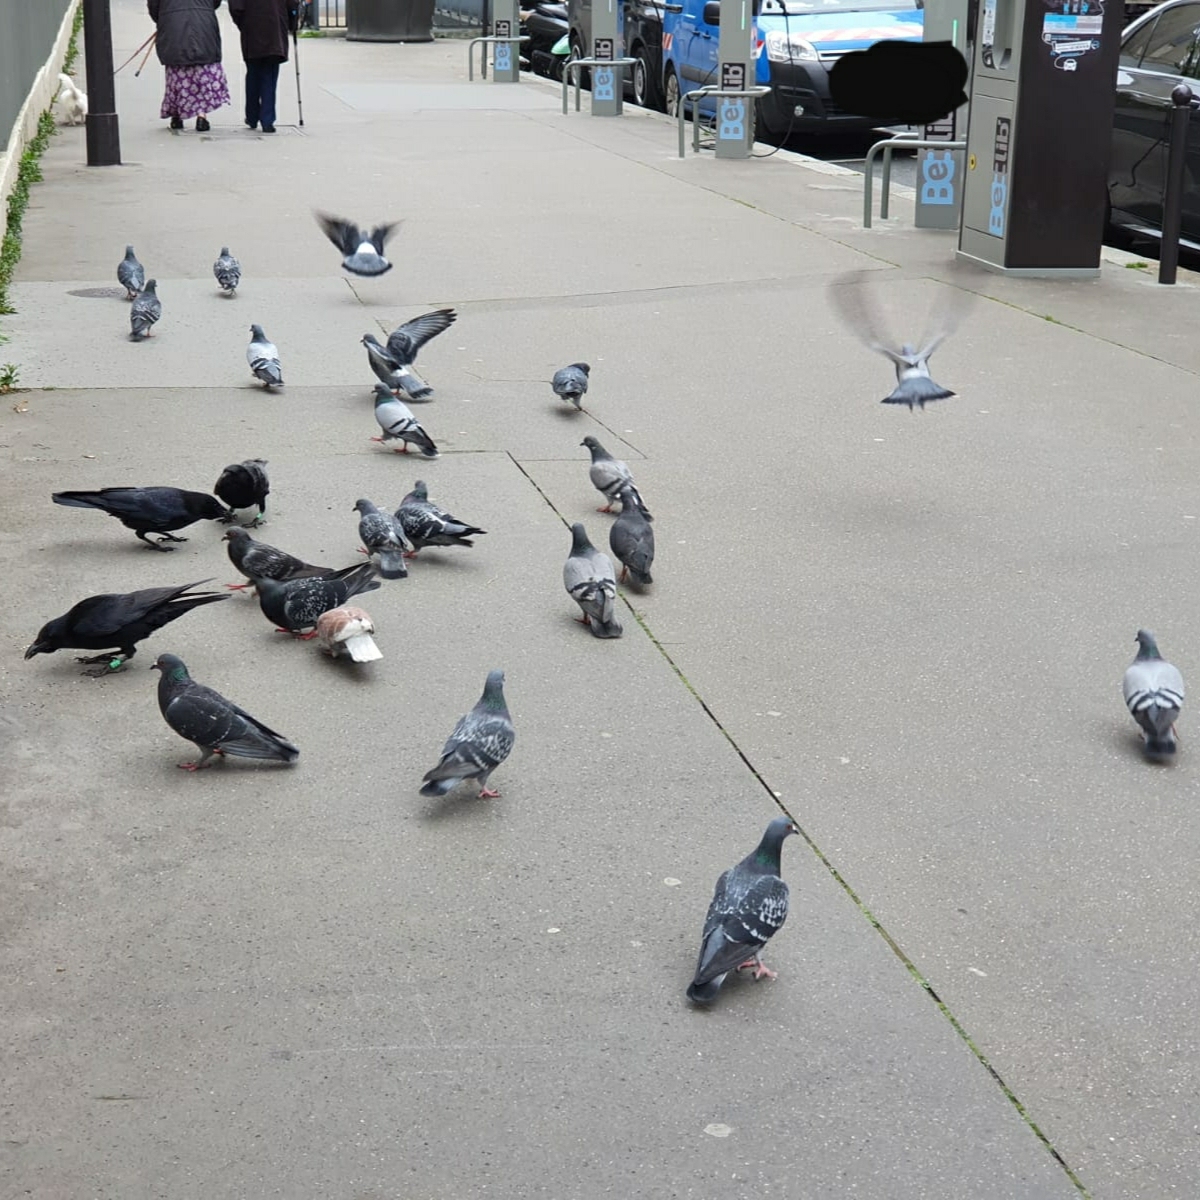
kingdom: Animalia
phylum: Chordata
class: Aves
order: Columbiformes
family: Columbidae
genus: Columba
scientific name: Columba livia
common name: Rock pigeon
